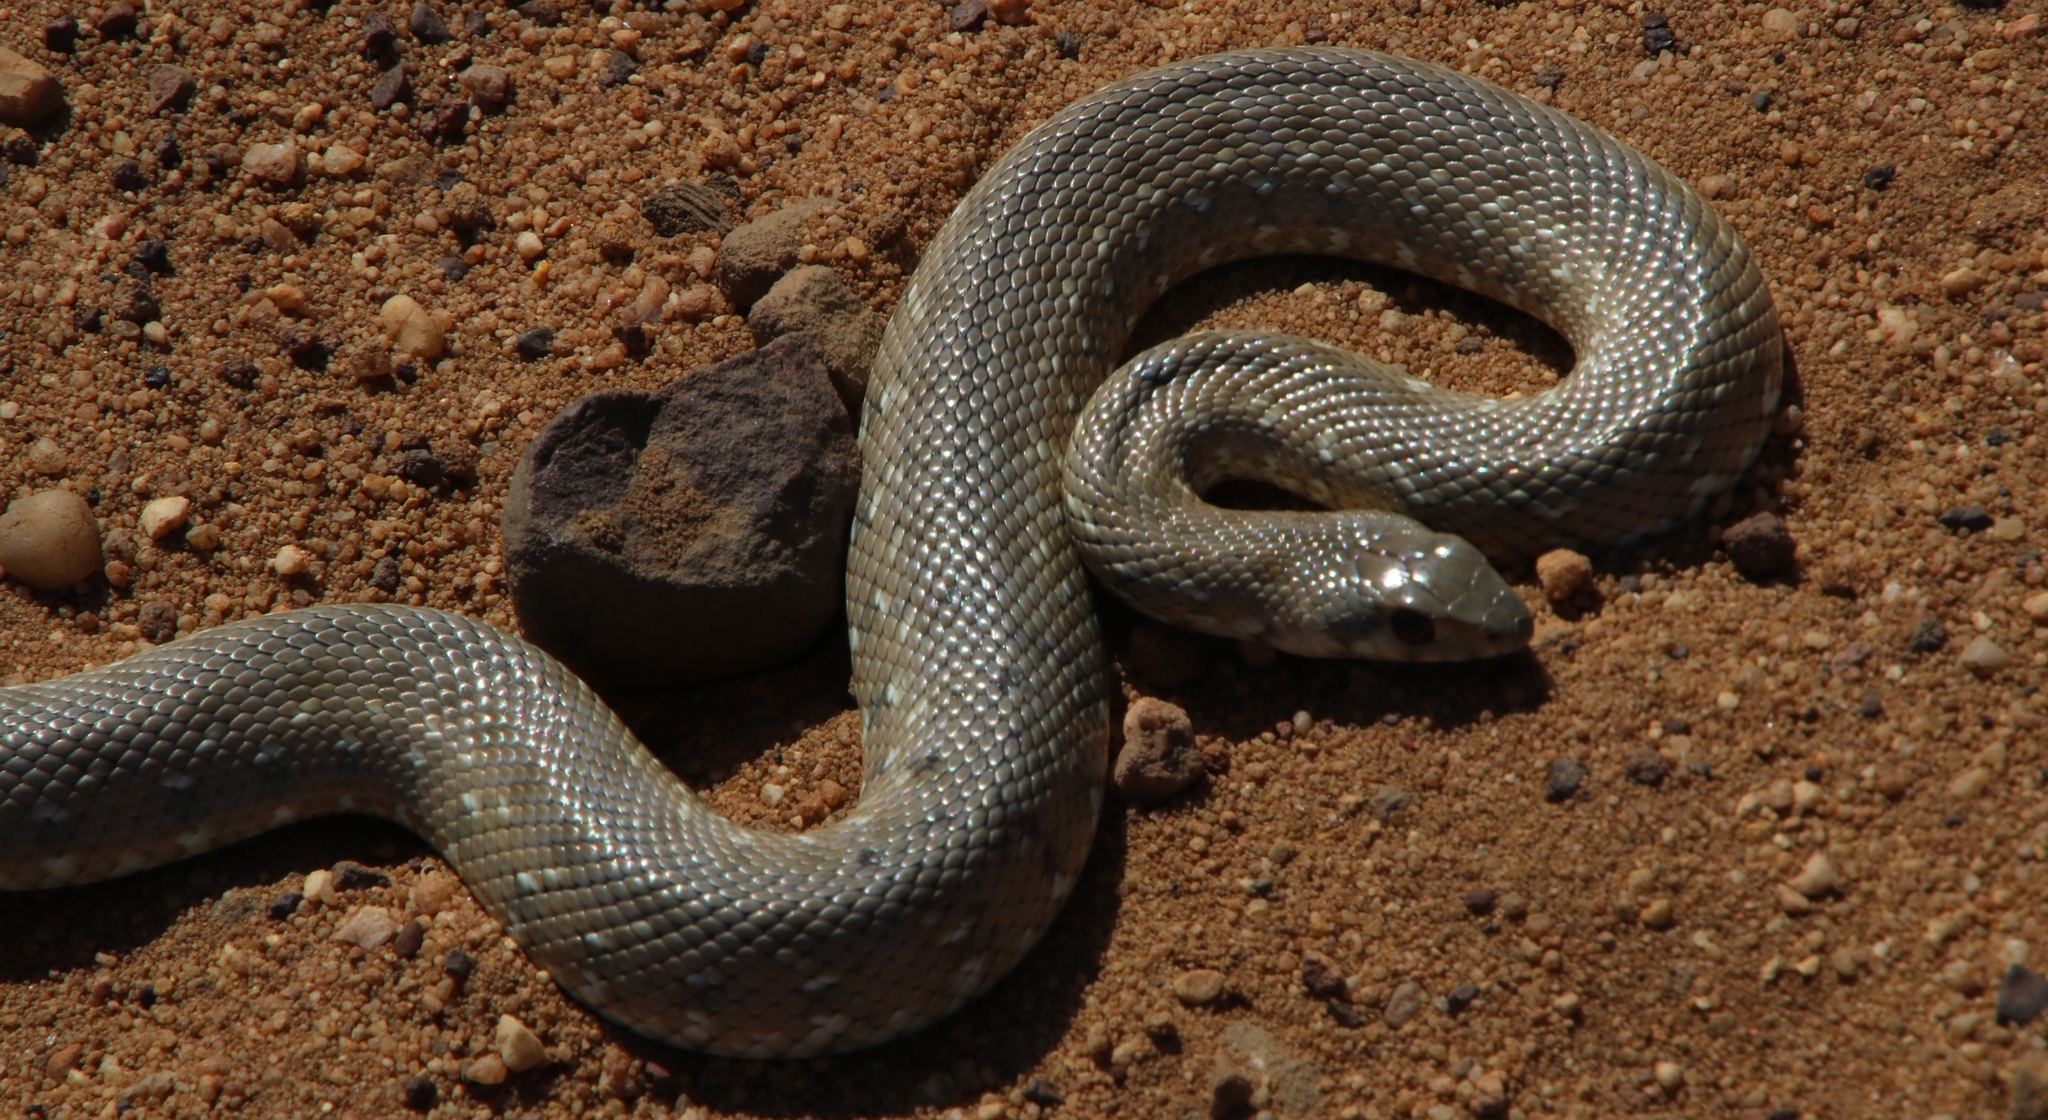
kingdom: Animalia
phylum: Chordata
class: Squamata
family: Pseudaspididae
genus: Pseudaspis
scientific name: Pseudaspis cana
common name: Mole snake
